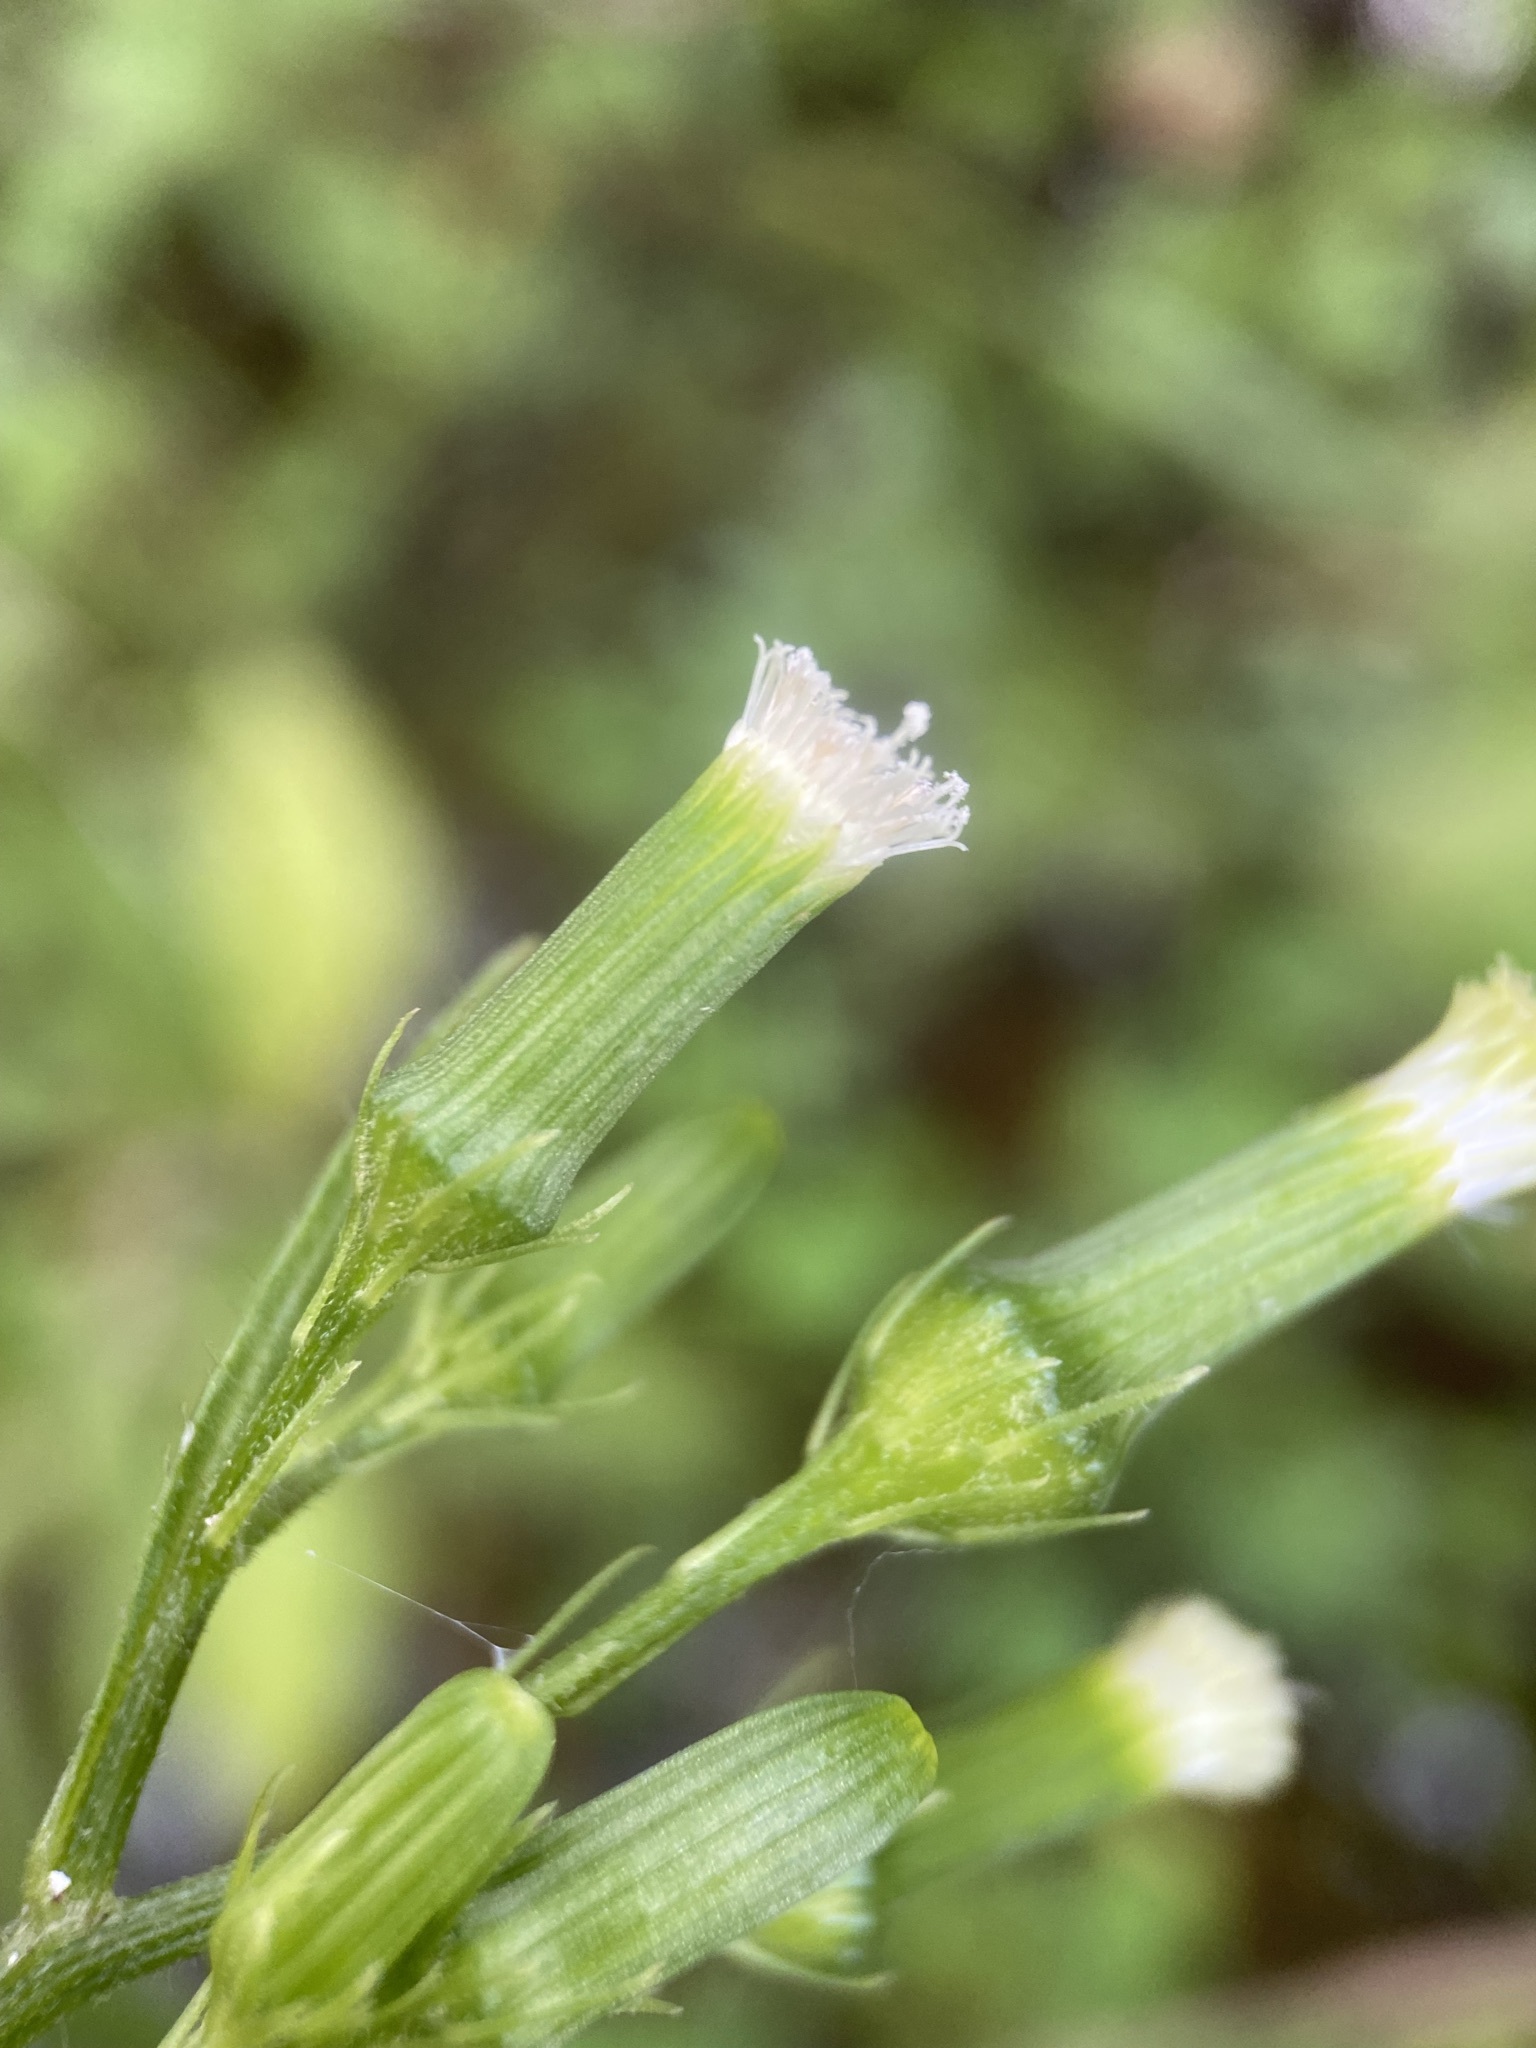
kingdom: Plantae
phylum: Tracheophyta
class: Magnoliopsida
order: Asterales
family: Asteraceae
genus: Erechtites
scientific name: Erechtites hieraciifolius
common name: American burnweed
